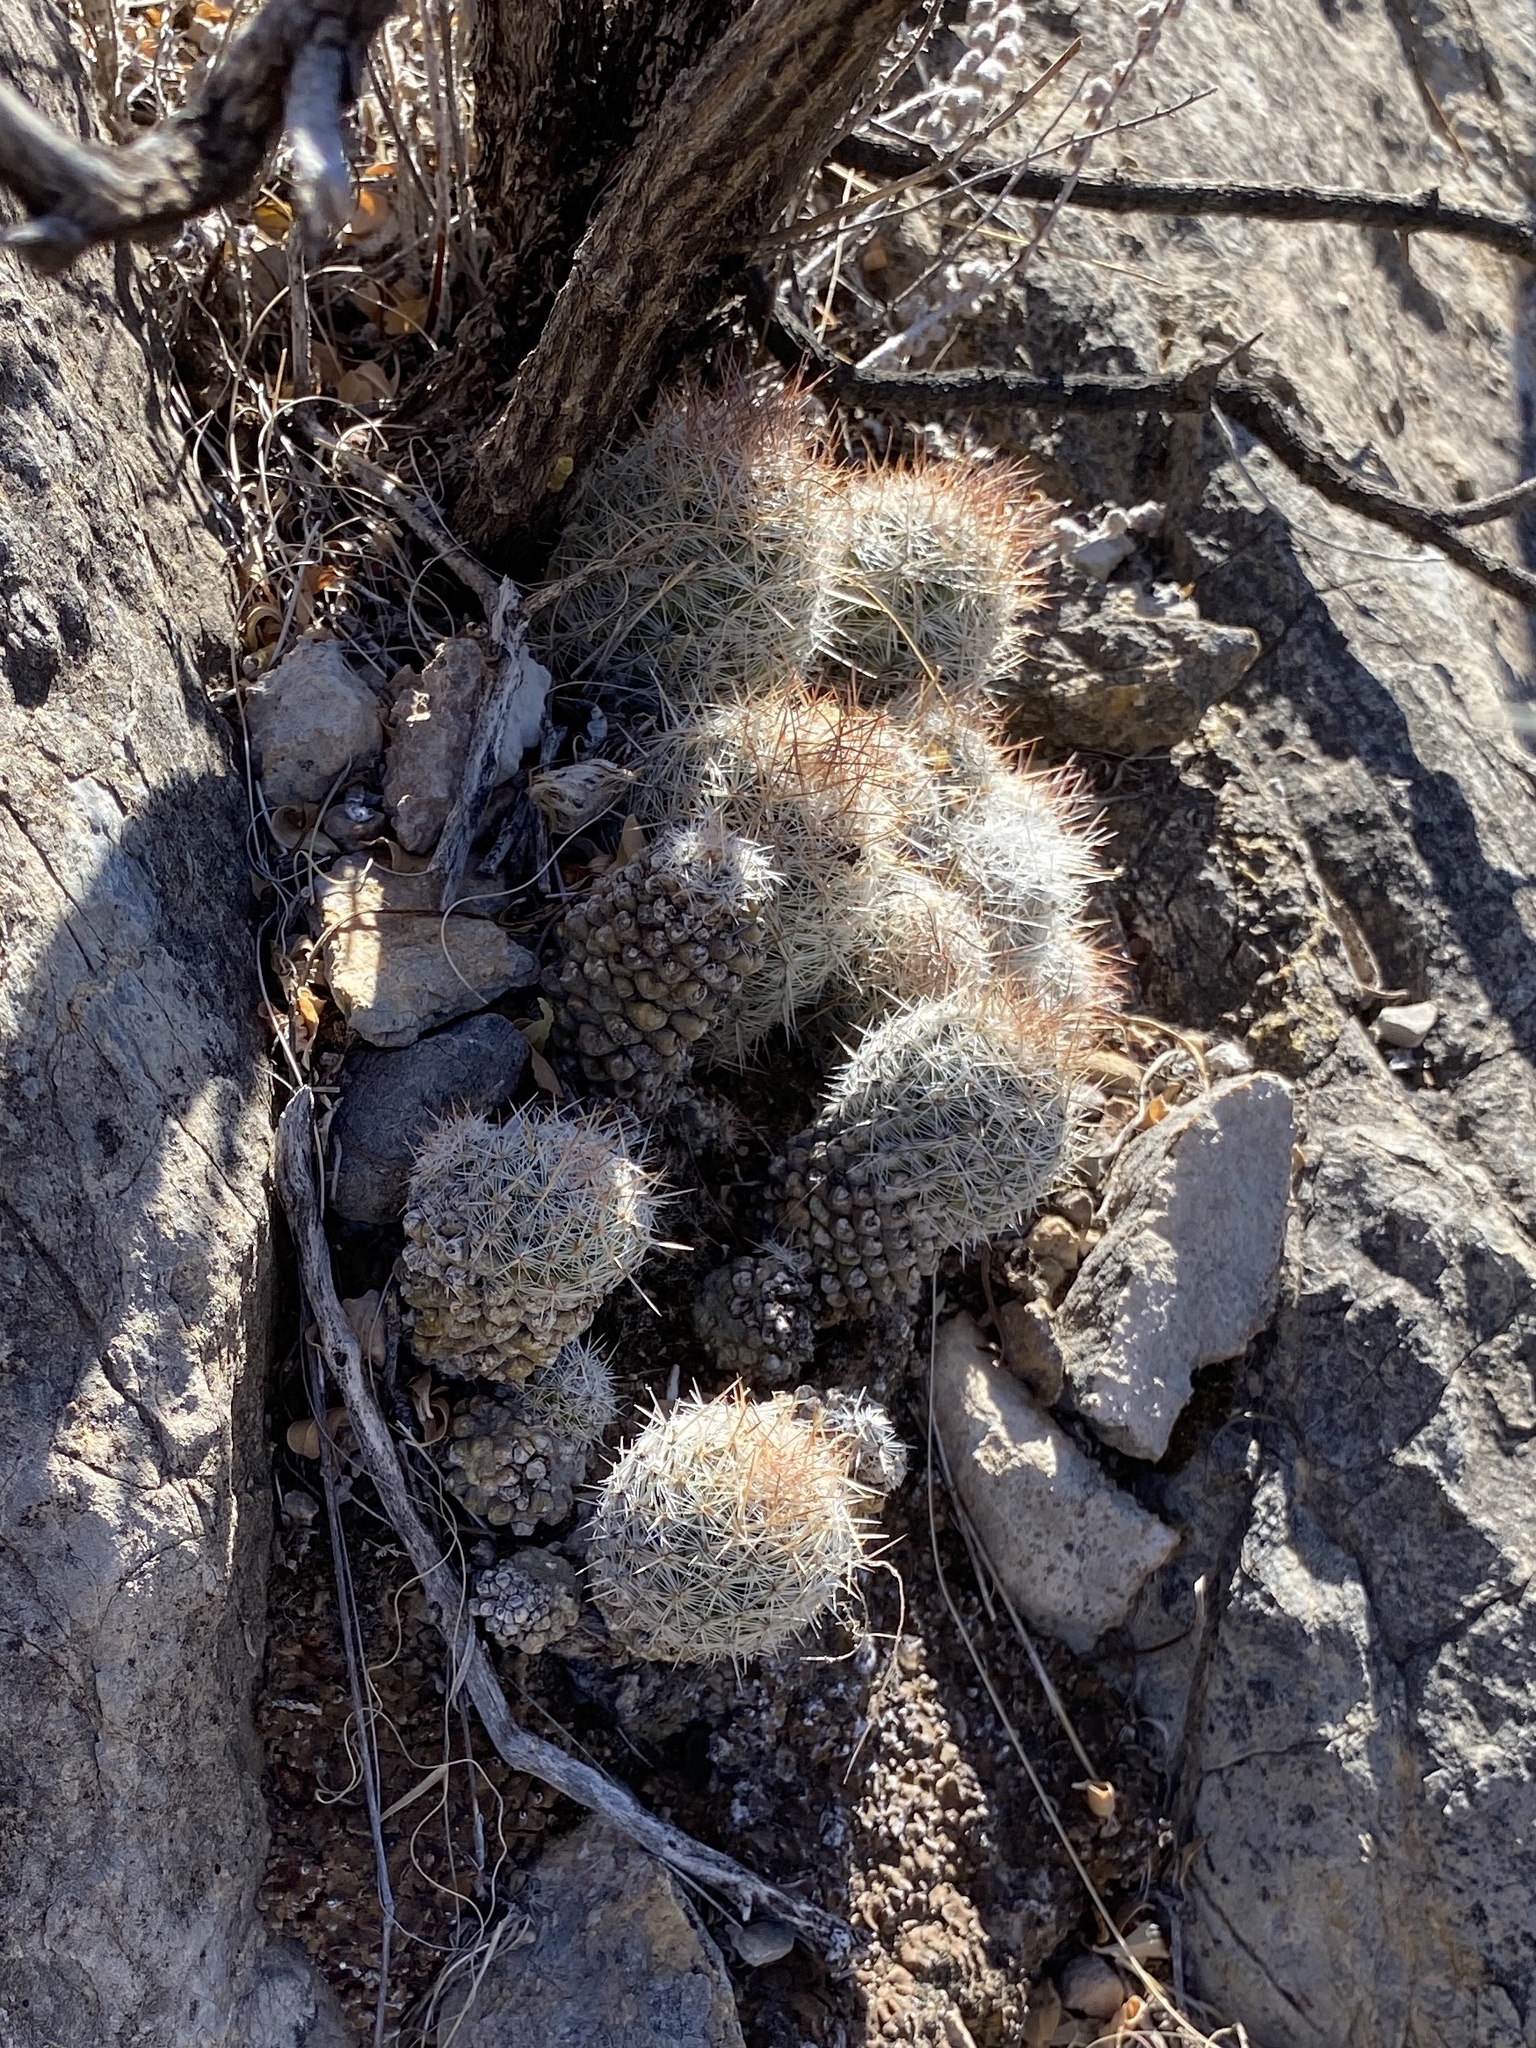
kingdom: Plantae
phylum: Tracheophyta
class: Magnoliopsida
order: Caryophyllales
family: Cactaceae
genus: Pelecyphora
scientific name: Pelecyphora tuberculosa
